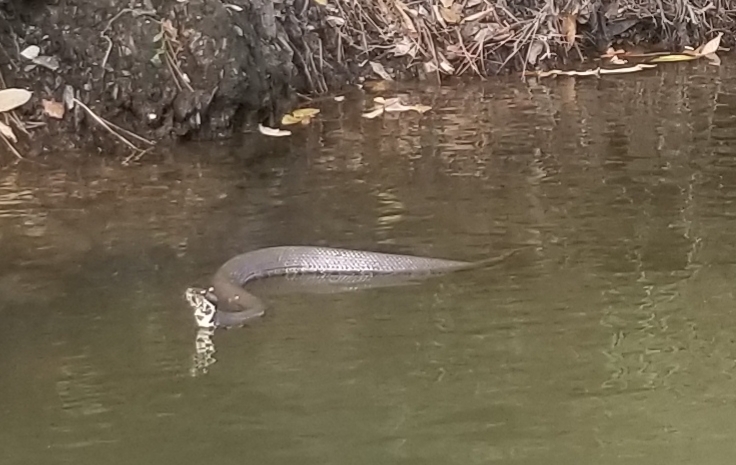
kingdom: Animalia
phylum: Chordata
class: Squamata
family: Viperidae
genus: Agkistrodon
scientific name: Agkistrodon piscivorus
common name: Cottonmouth
